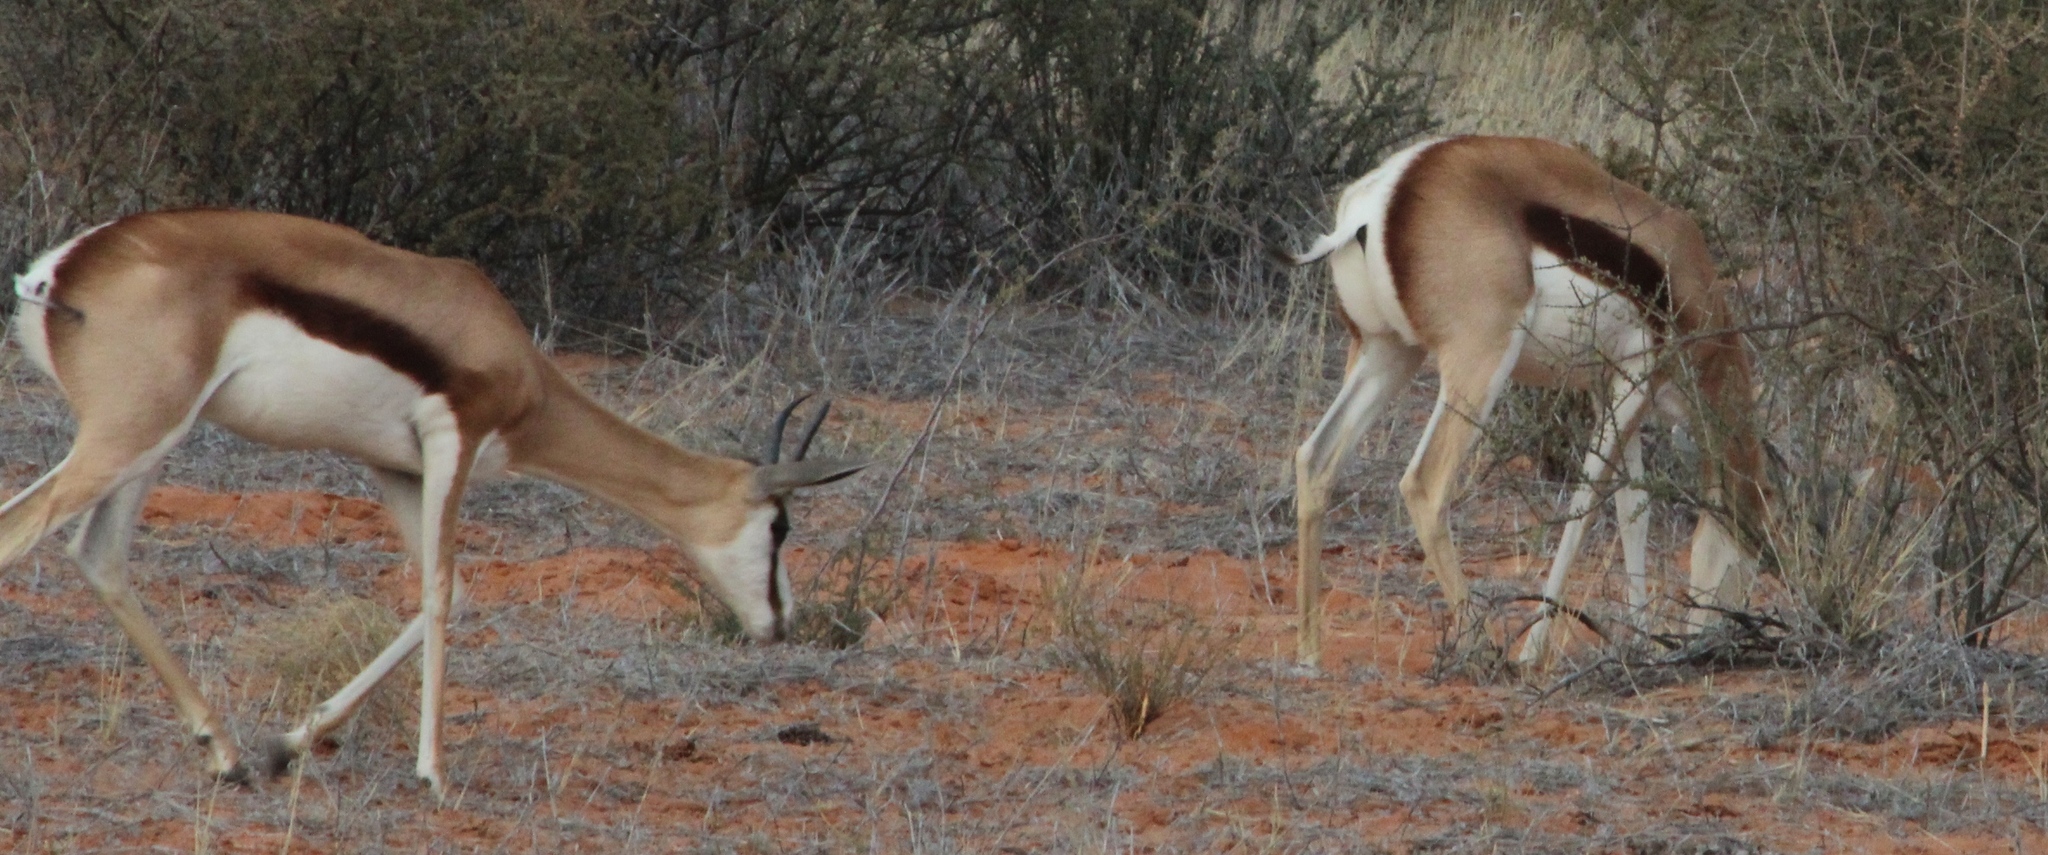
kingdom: Animalia
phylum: Chordata
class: Mammalia
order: Artiodactyla
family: Bovidae
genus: Antidorcas
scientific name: Antidorcas marsupialis
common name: Springbok
